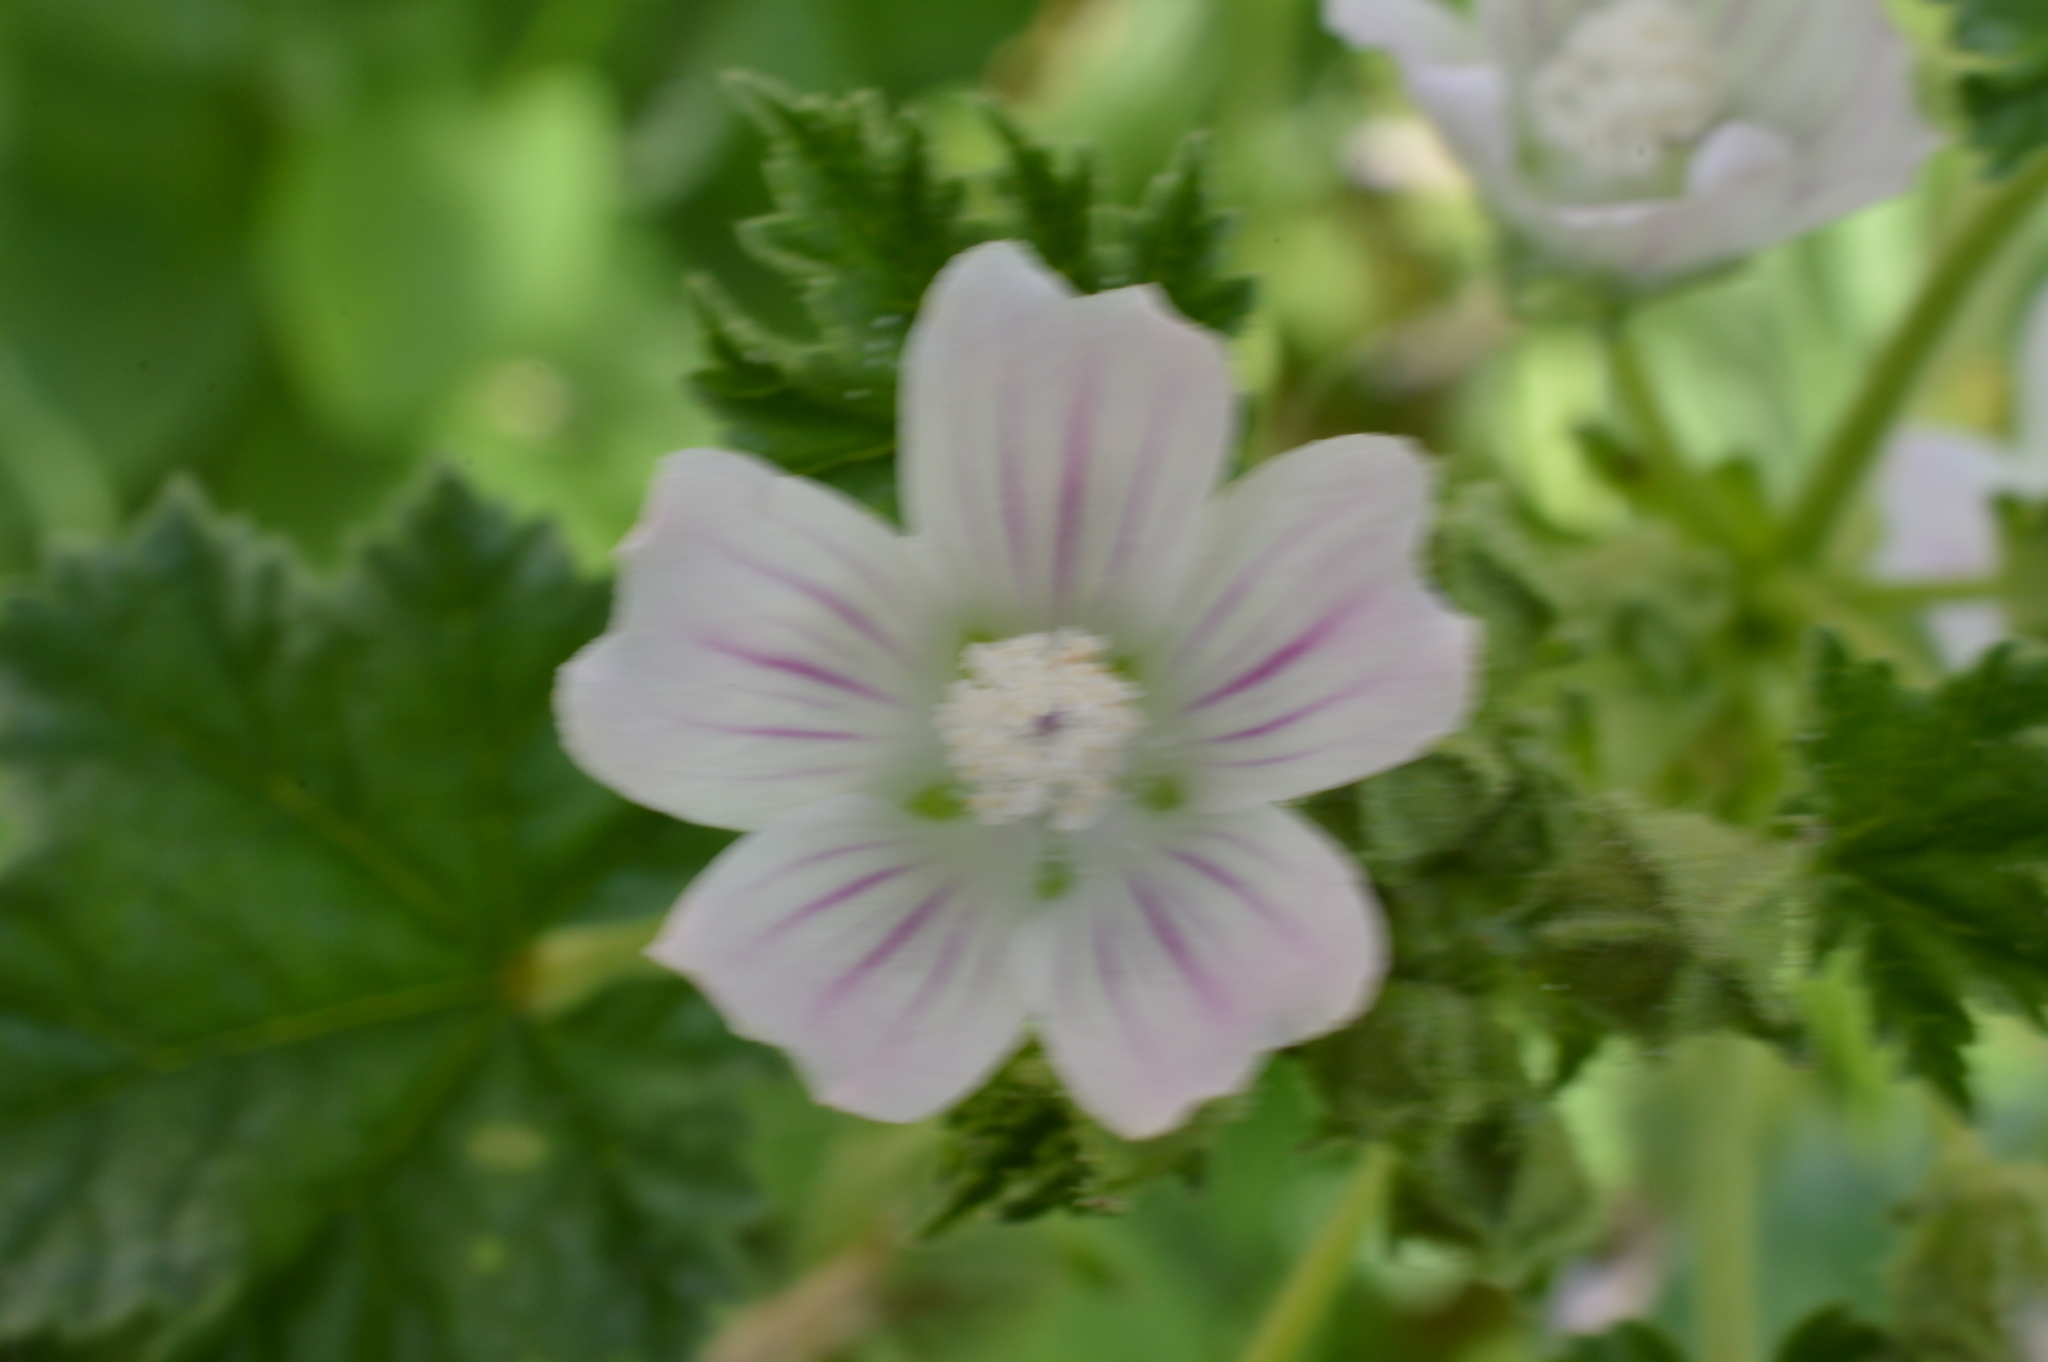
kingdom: Plantae
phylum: Tracheophyta
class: Magnoliopsida
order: Malvales
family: Malvaceae
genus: Malva
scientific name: Malva neglecta
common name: Common mallow
